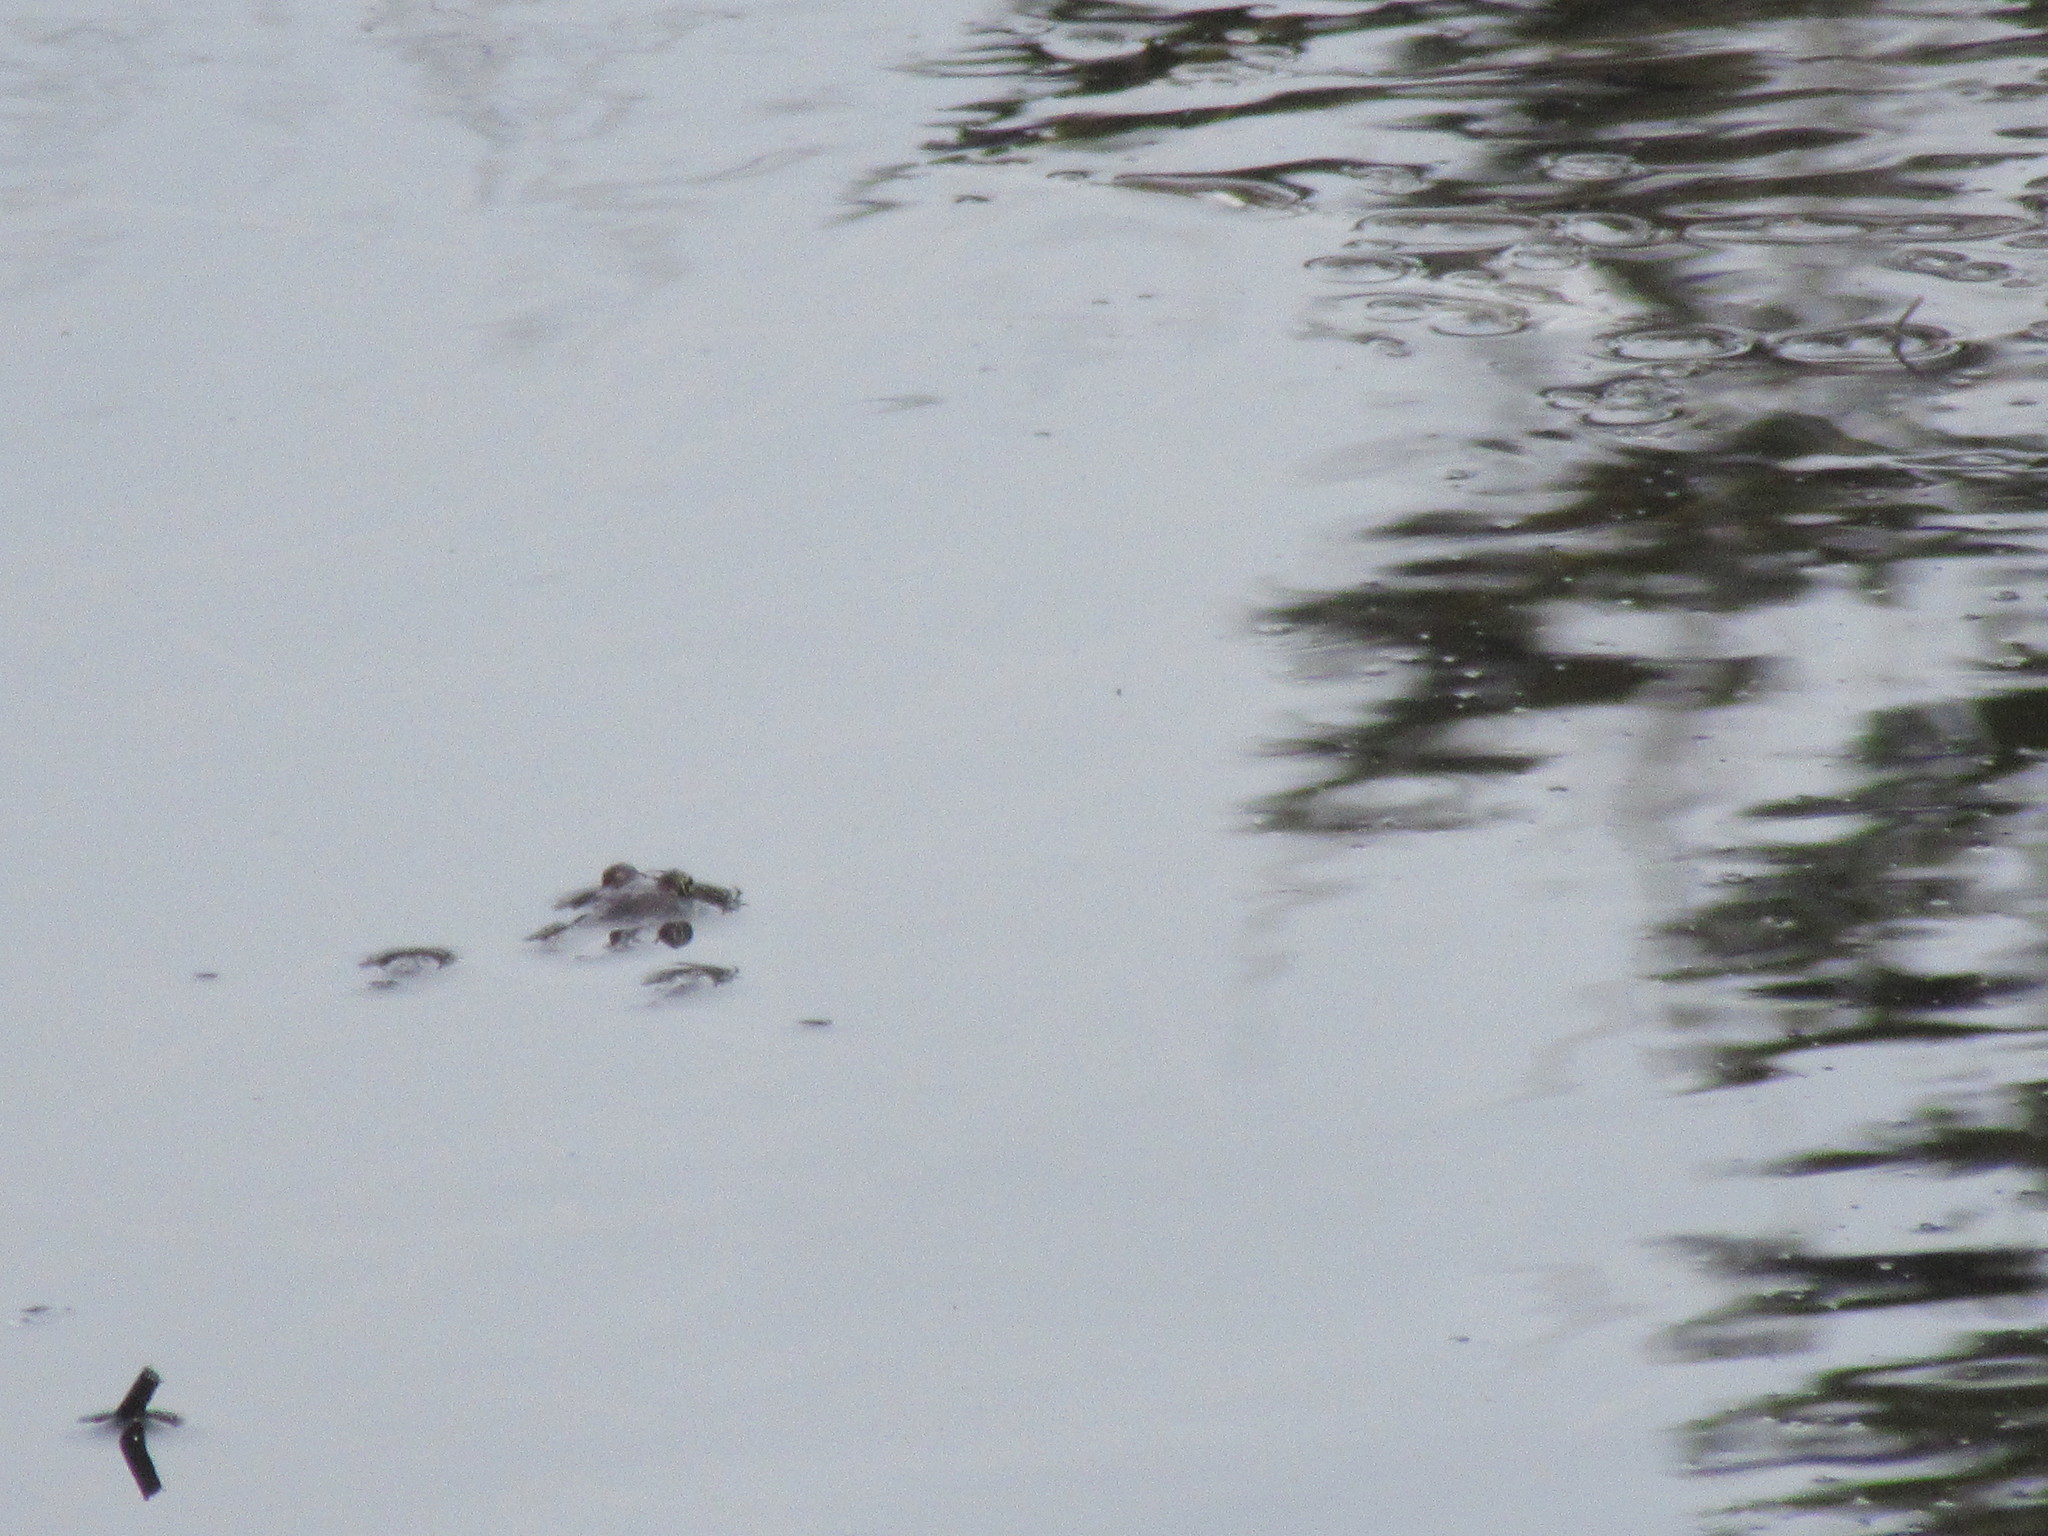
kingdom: Animalia
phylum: Chordata
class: Amphibia
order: Anura
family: Ranidae
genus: Lithobates
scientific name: Lithobates sylvaticus
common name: Wood frog
